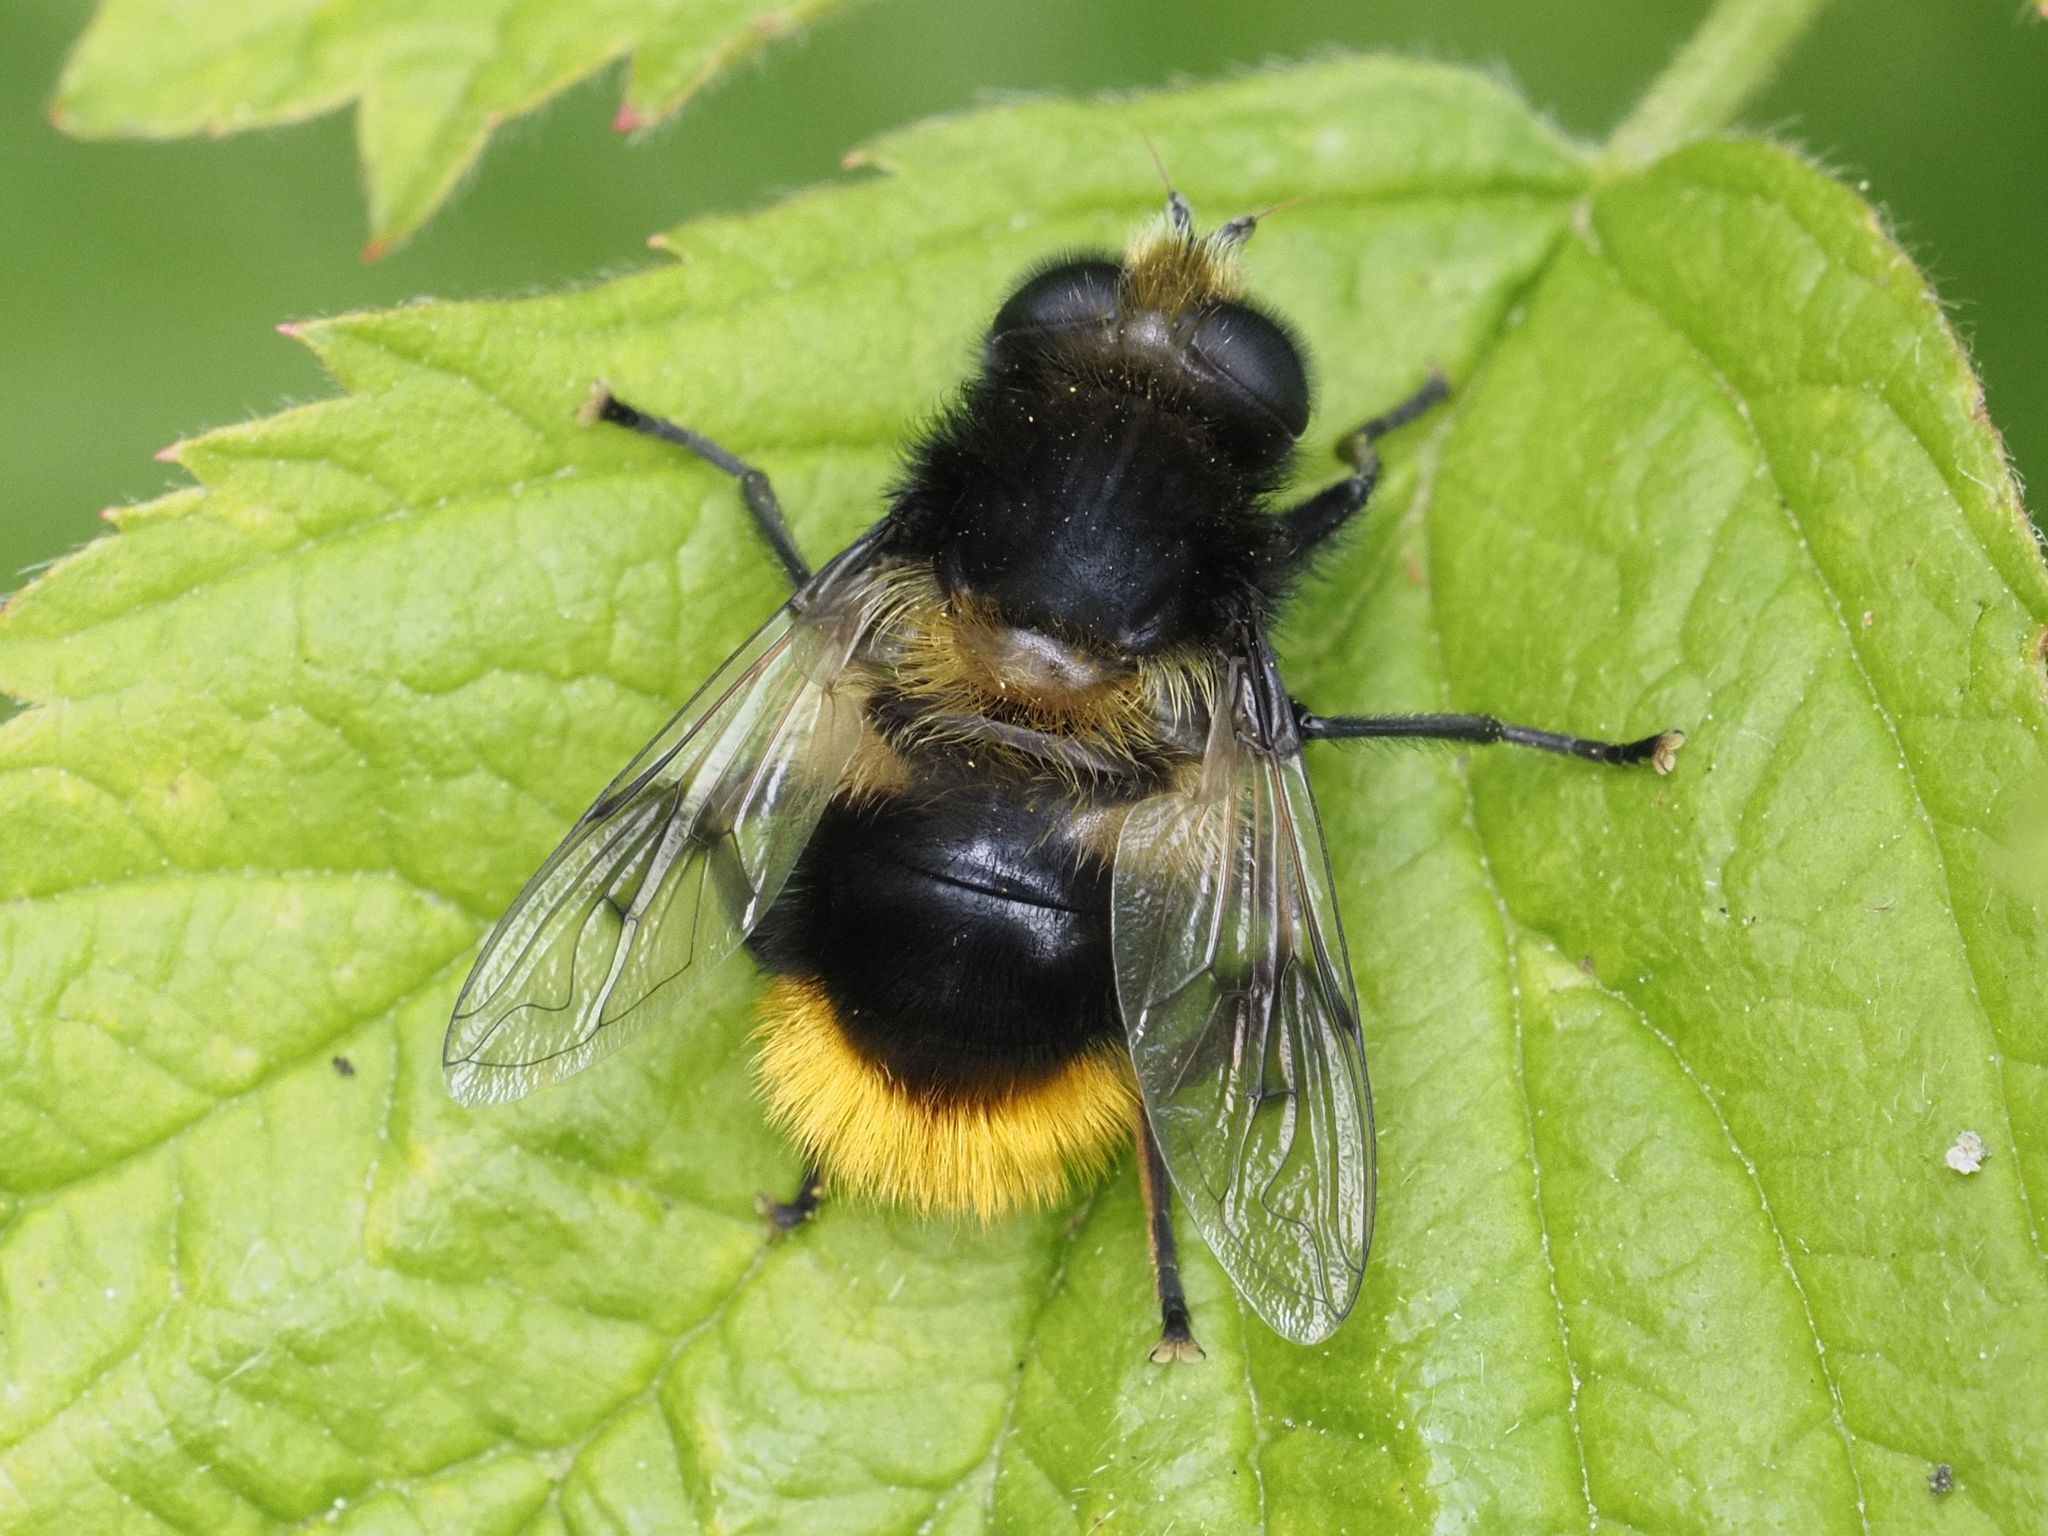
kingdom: Animalia
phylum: Arthropoda
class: Insecta
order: Diptera
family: Syrphidae
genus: Mallota
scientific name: Mallota fuciformis
